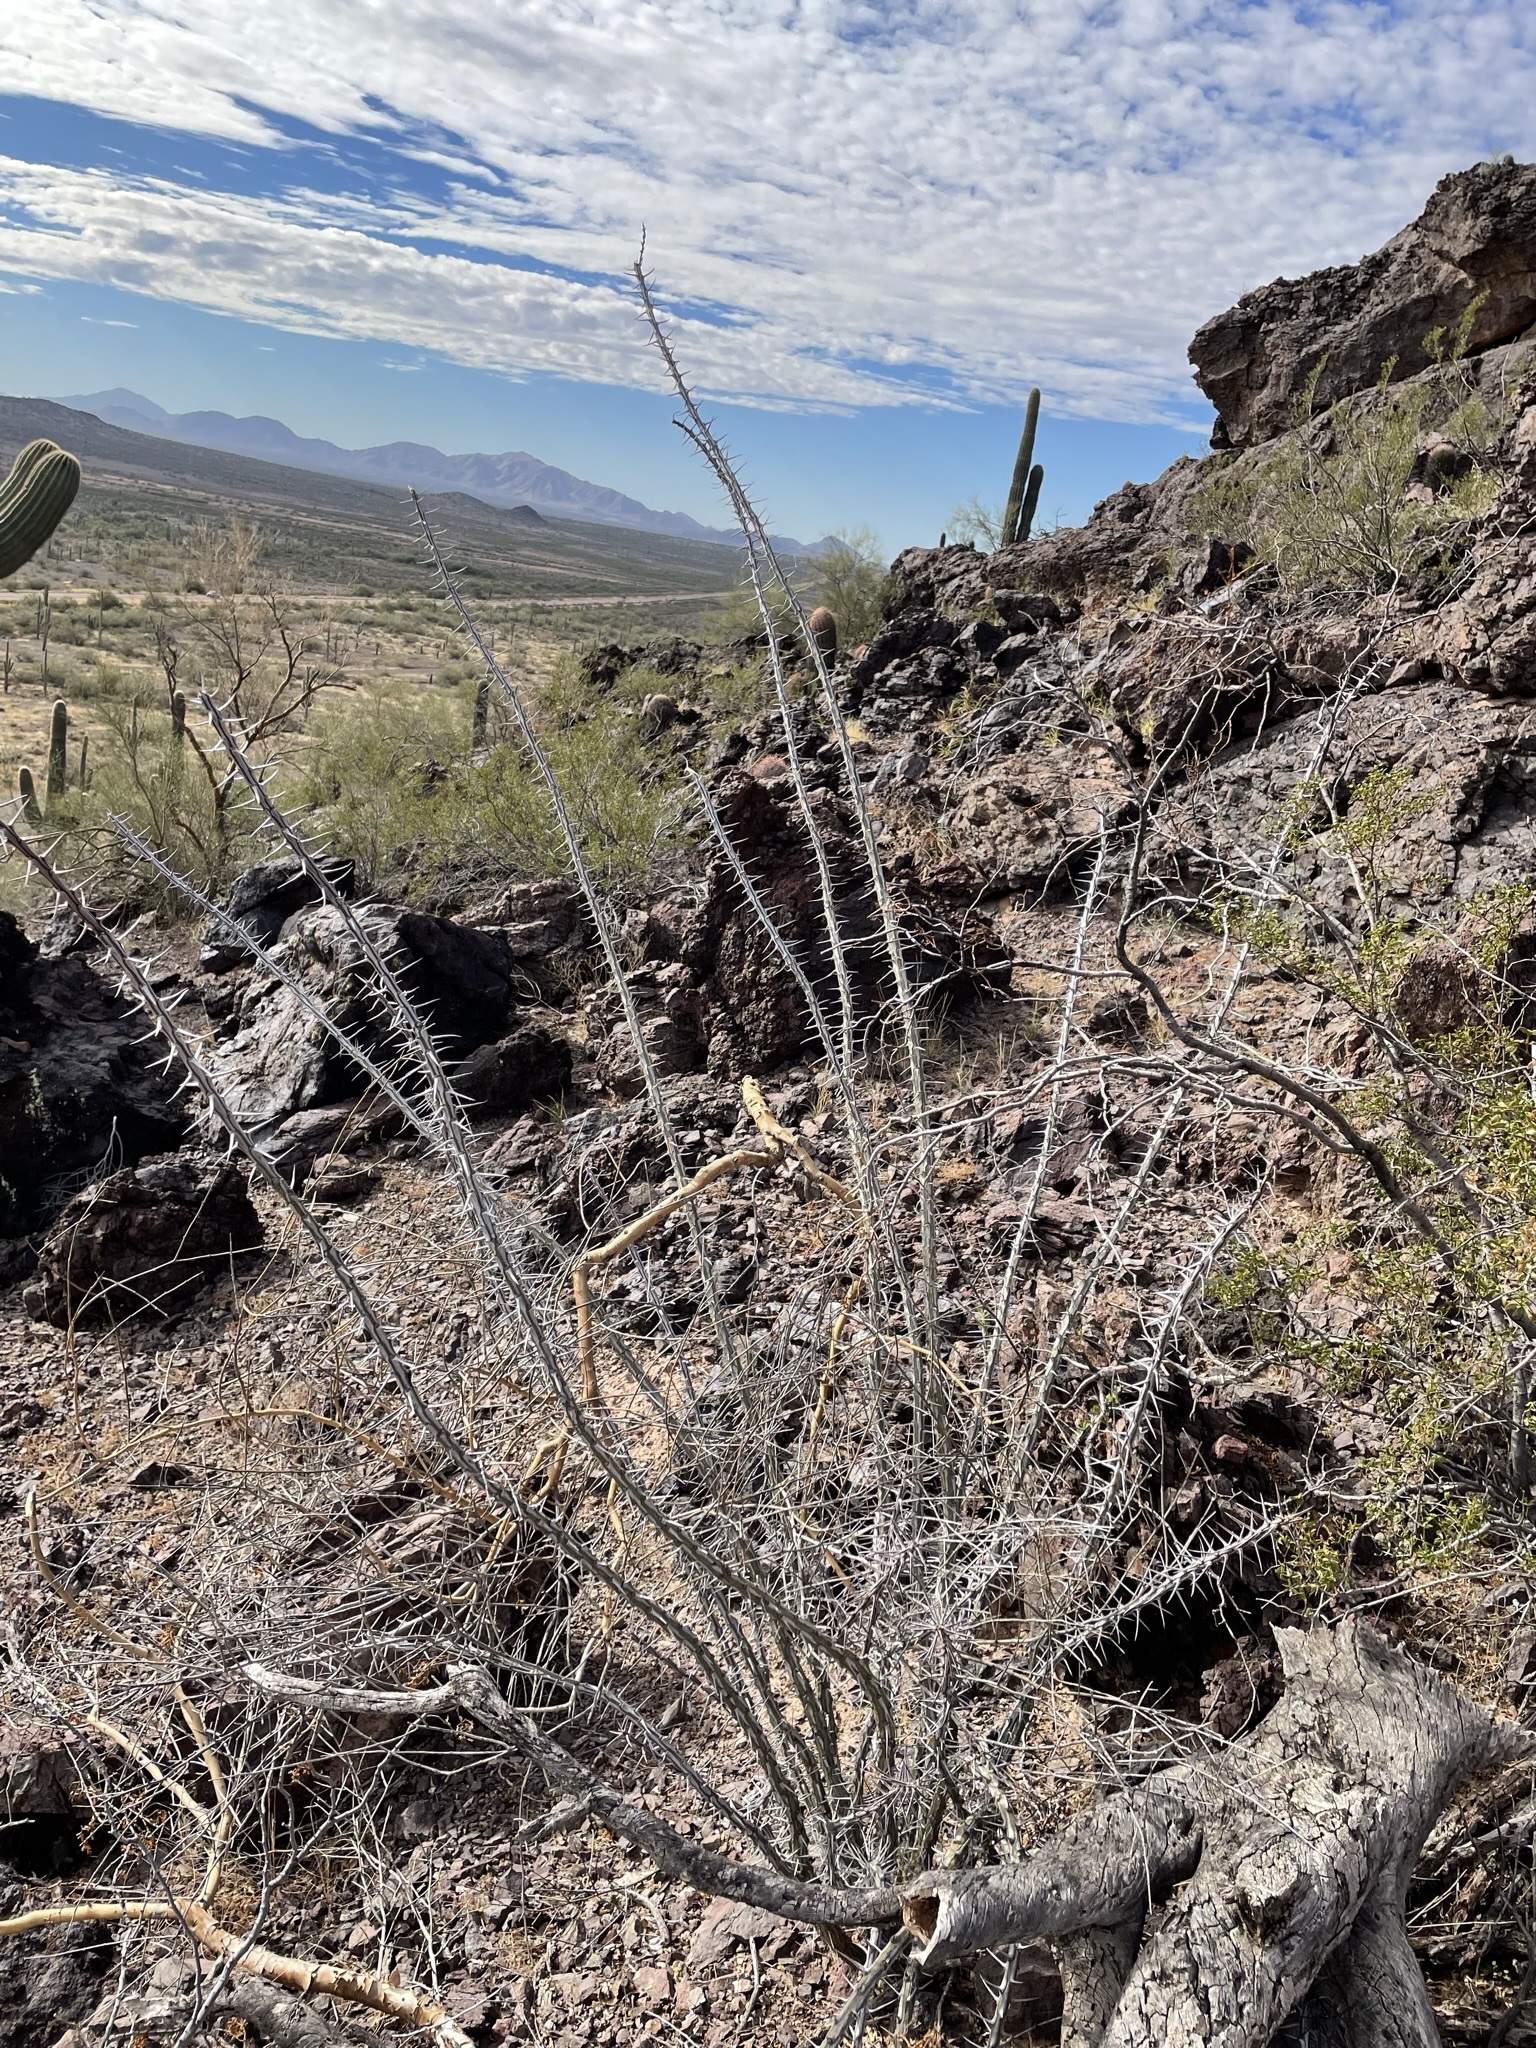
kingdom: Plantae
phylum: Tracheophyta
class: Magnoliopsida
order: Ericales
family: Fouquieriaceae
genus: Fouquieria
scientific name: Fouquieria splendens
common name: Vine-cactus
